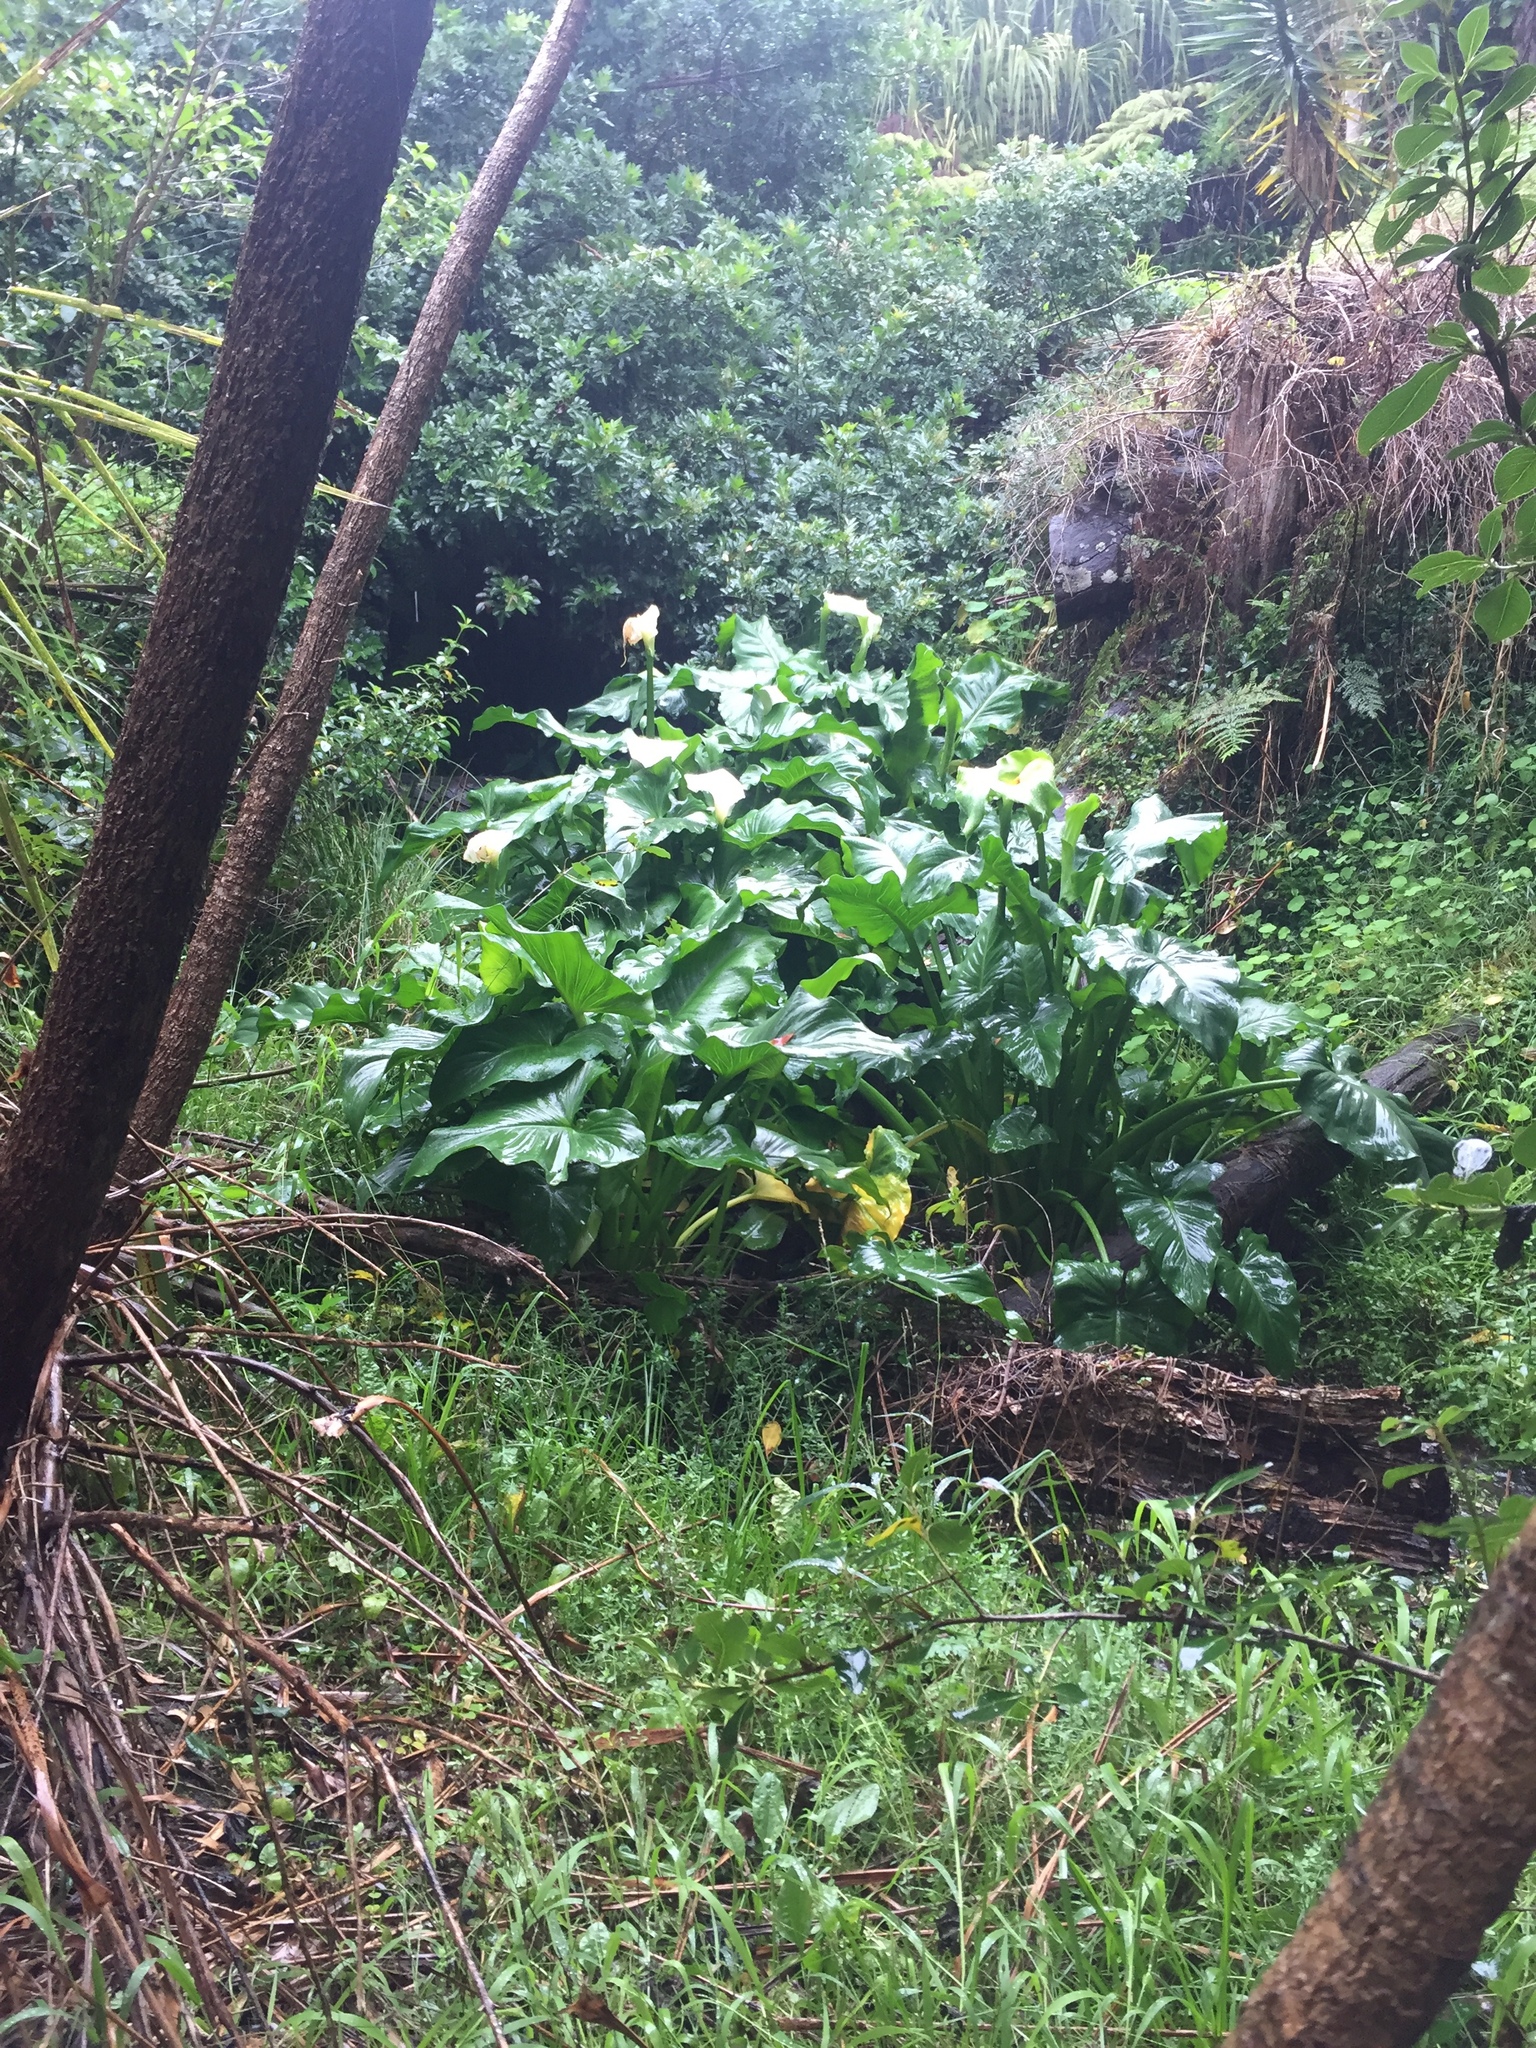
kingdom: Plantae
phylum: Tracheophyta
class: Liliopsida
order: Alismatales
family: Araceae
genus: Zantedeschia
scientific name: Zantedeschia aethiopica
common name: Altar-lily
